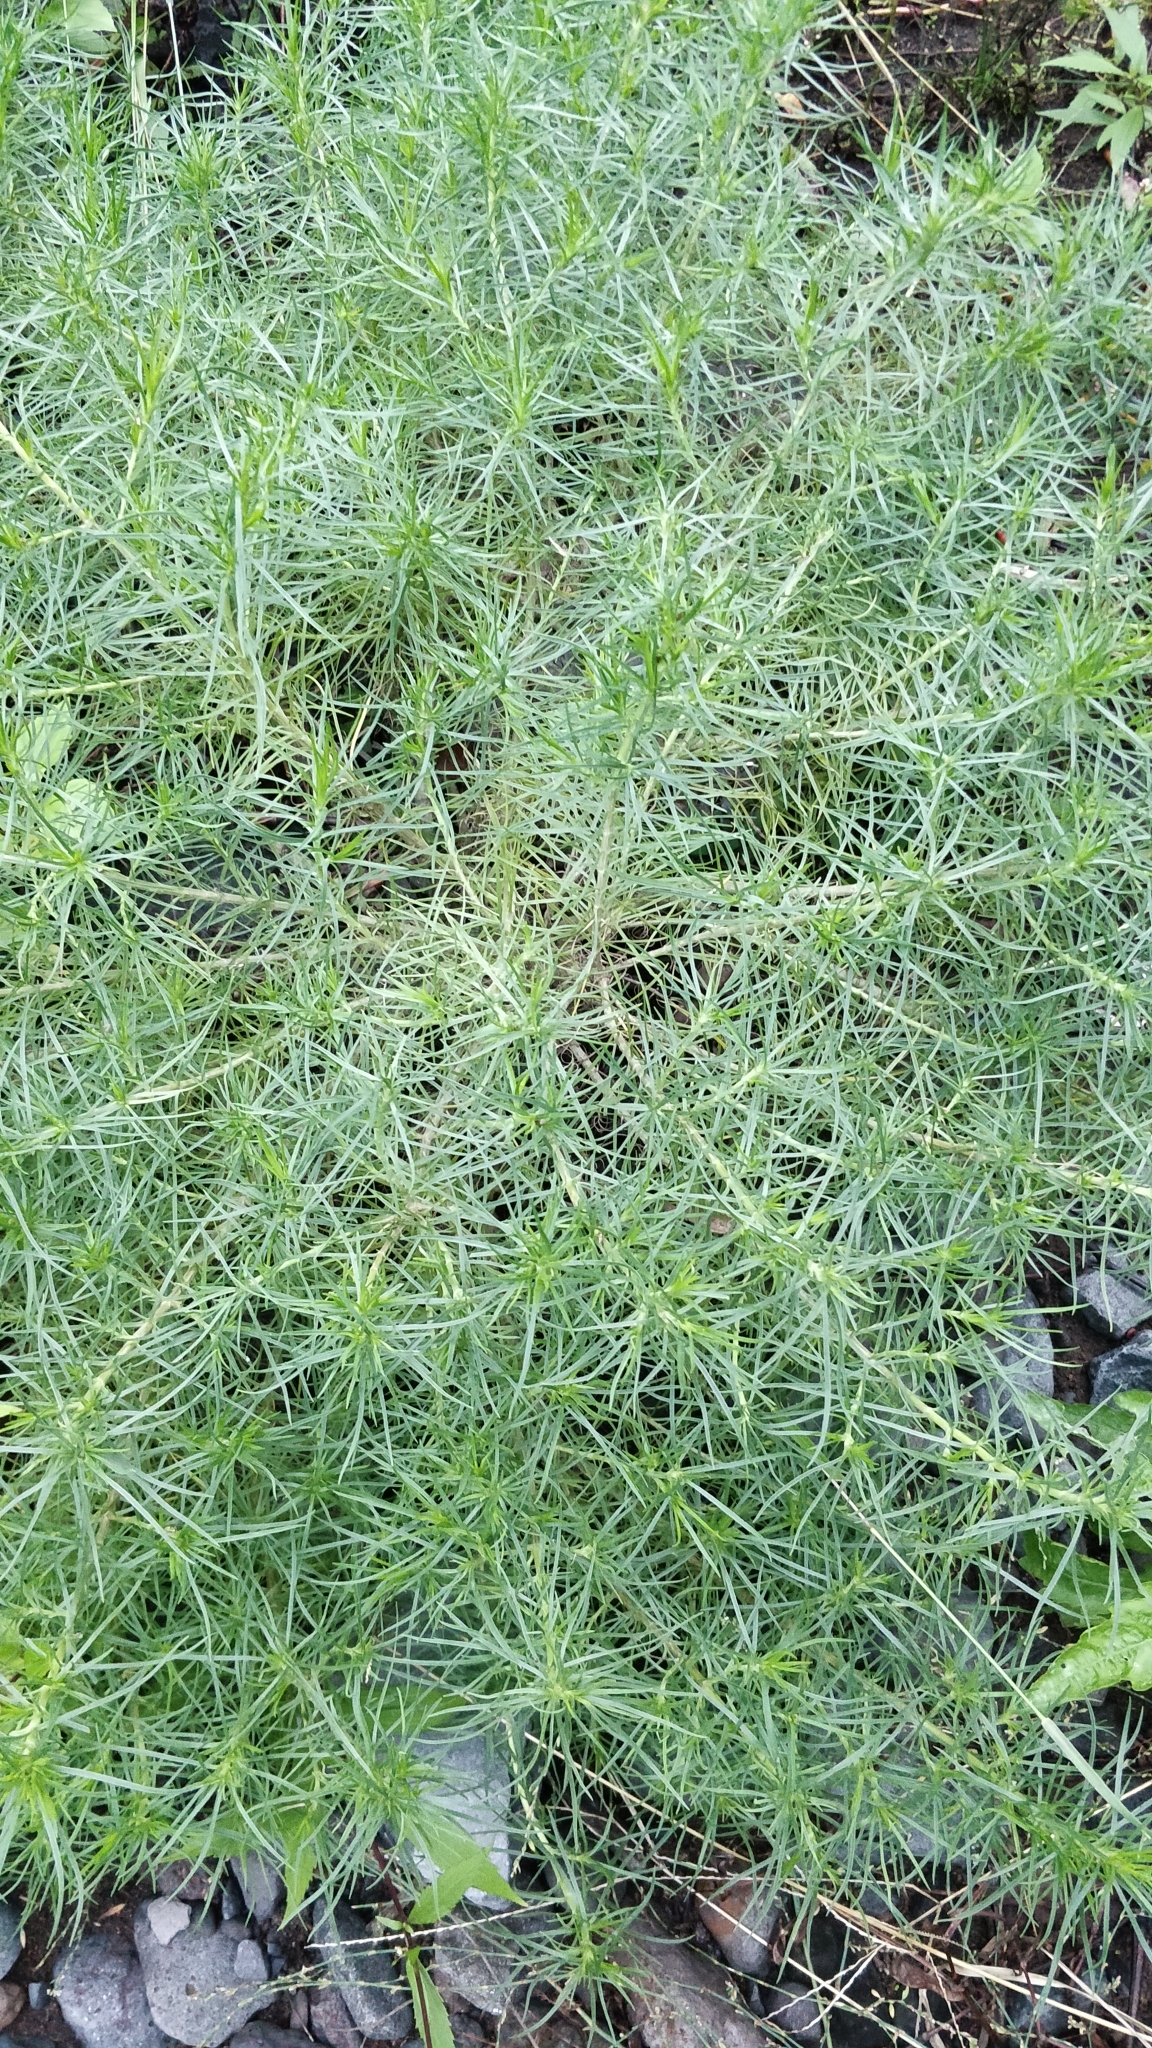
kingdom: Plantae
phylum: Tracheophyta
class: Magnoliopsida
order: Lamiales
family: Plantaginaceae
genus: Plantago
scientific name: Plantago arborescens
